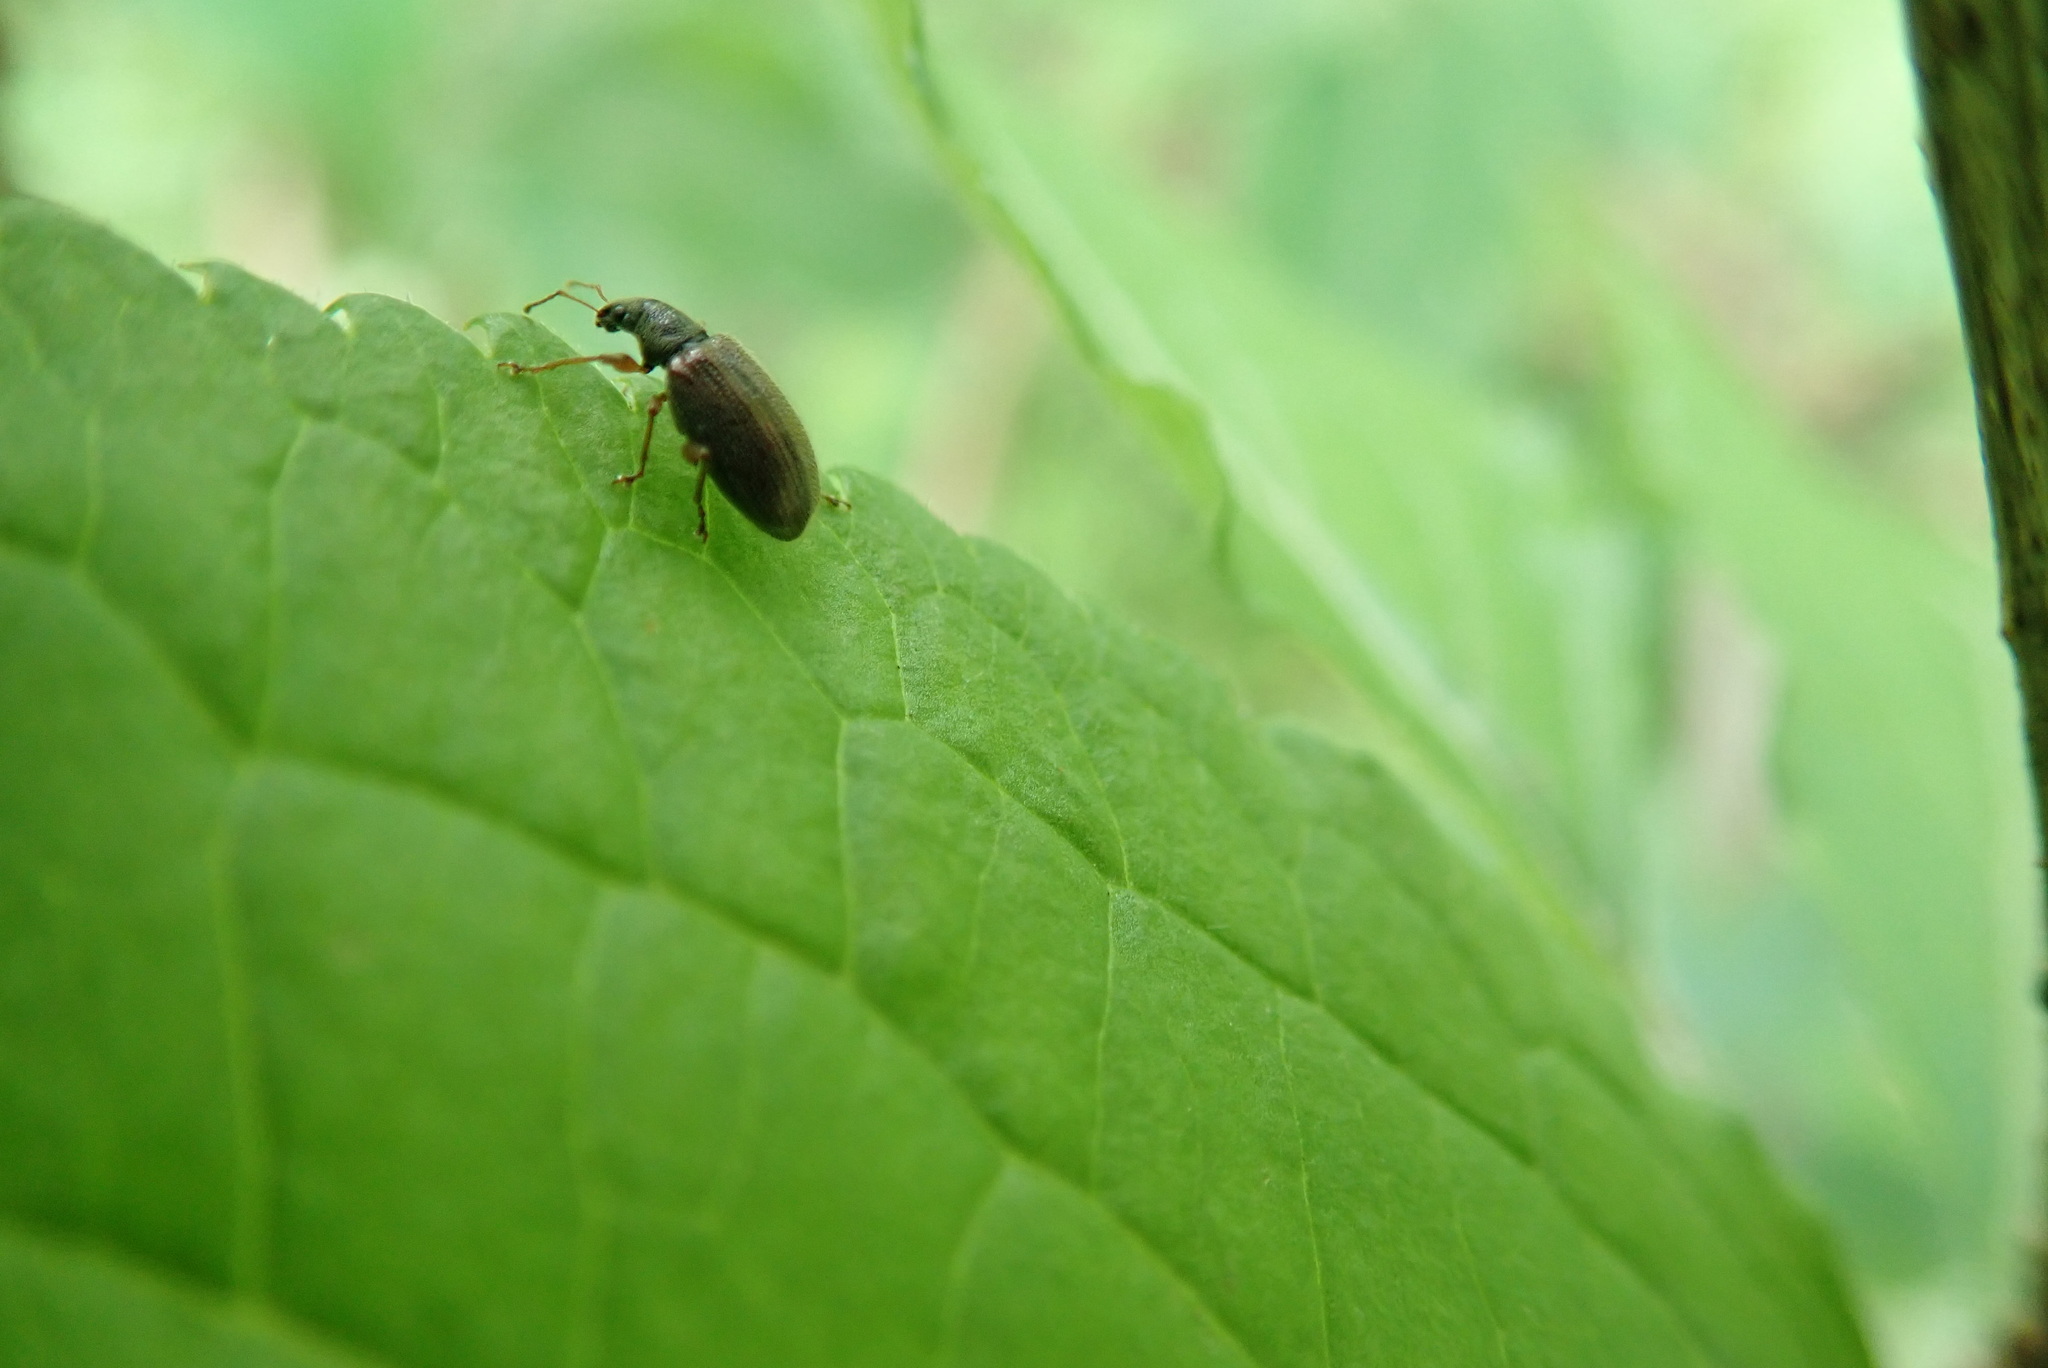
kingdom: Animalia
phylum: Arthropoda
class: Insecta
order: Coleoptera
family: Curculionidae
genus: Phyllobius
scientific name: Phyllobius oblongus
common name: Brown leaf weevil
